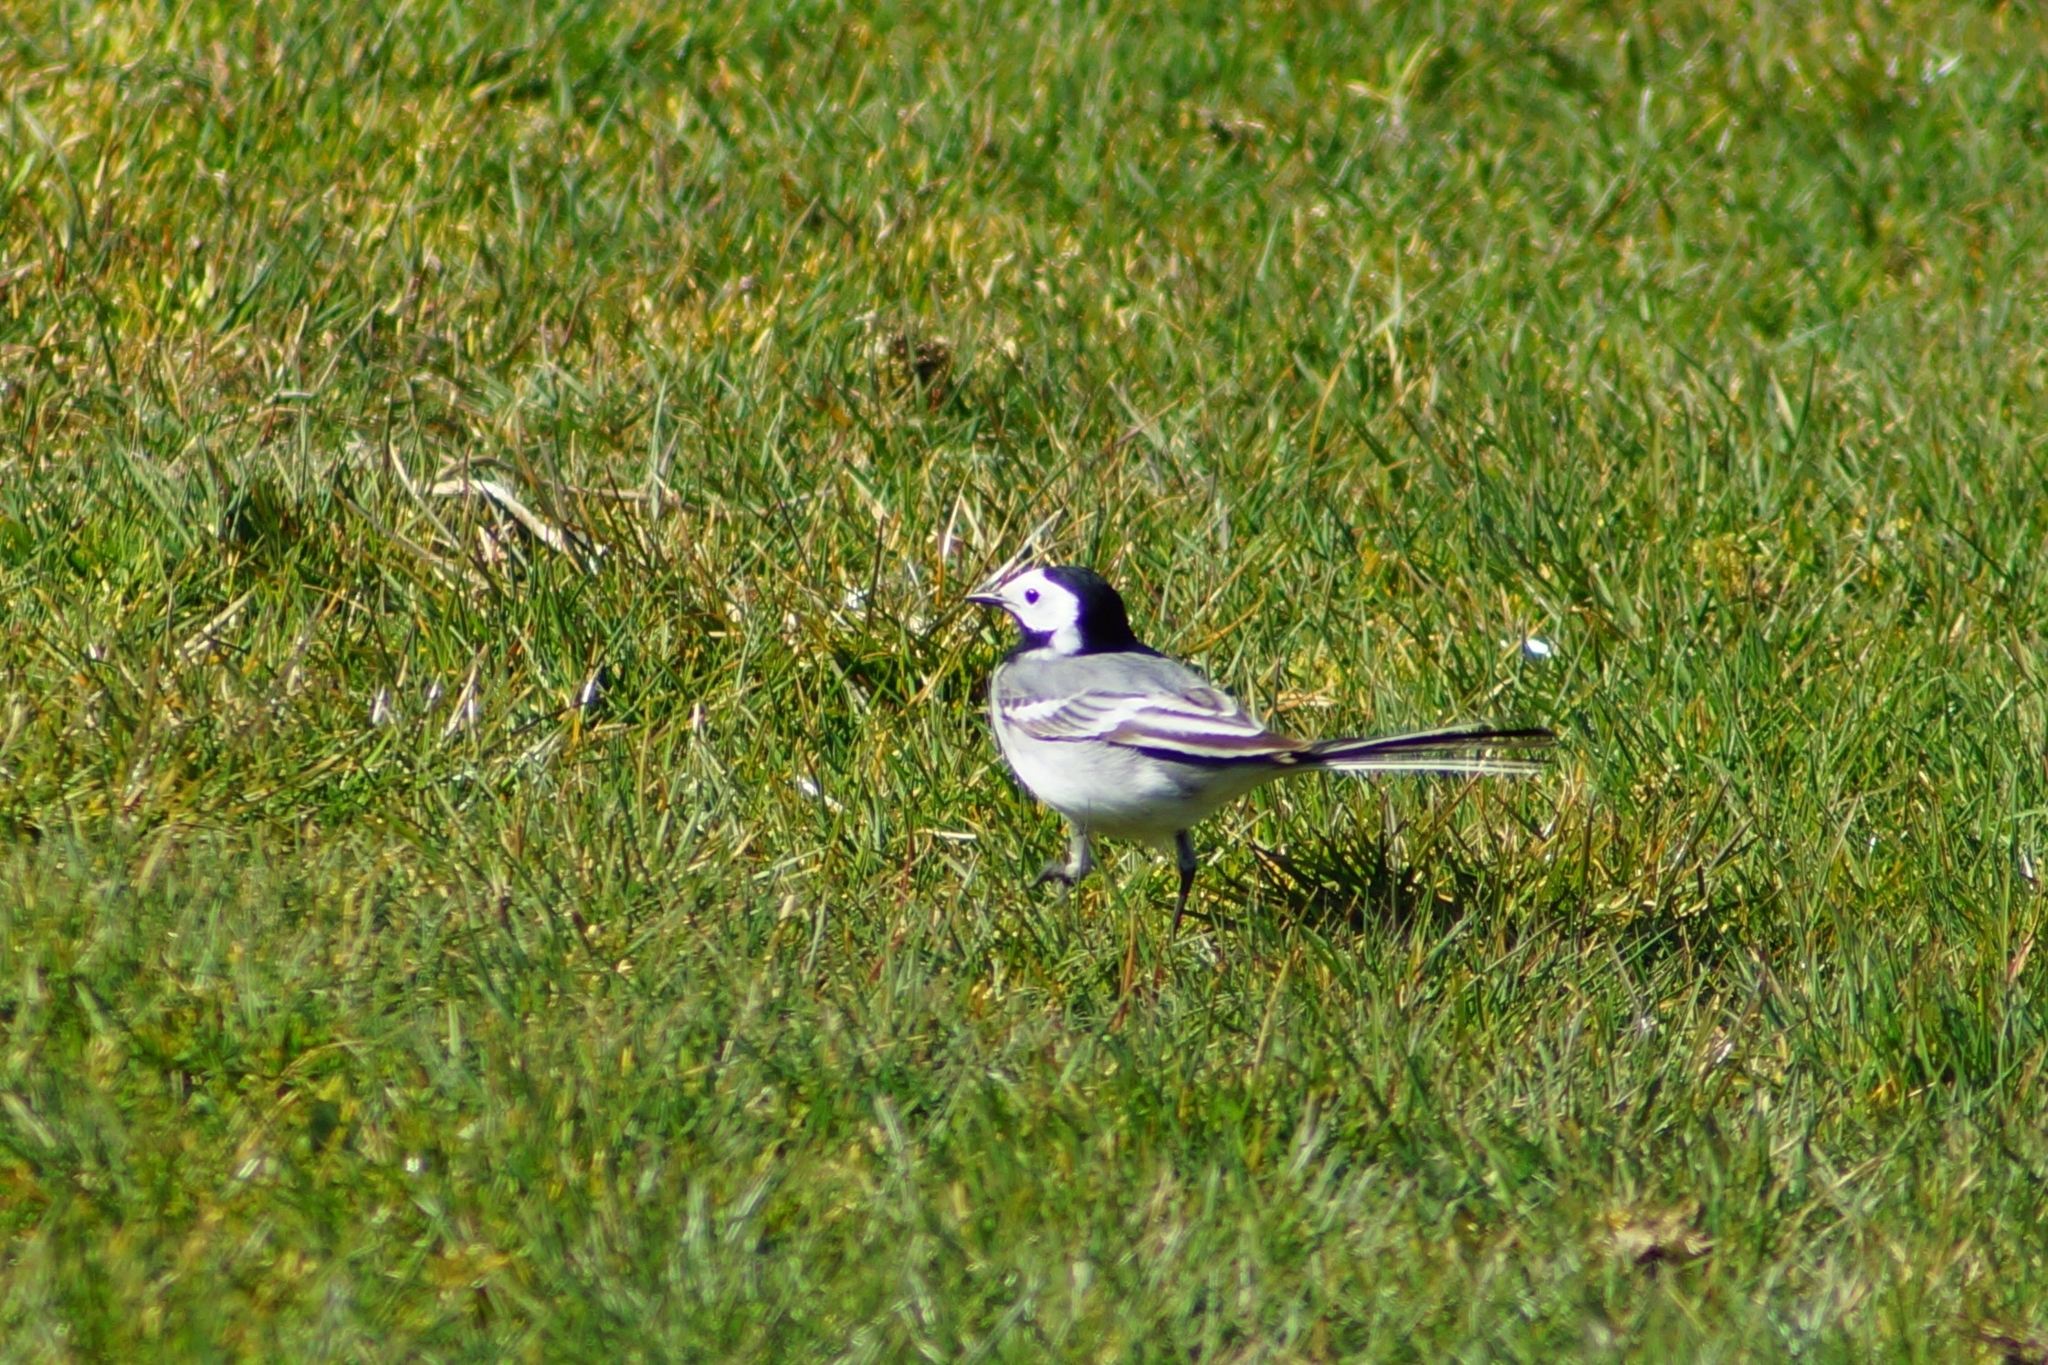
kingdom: Animalia
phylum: Chordata
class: Aves
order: Passeriformes
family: Motacillidae
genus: Motacilla
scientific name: Motacilla alba
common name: White wagtail
